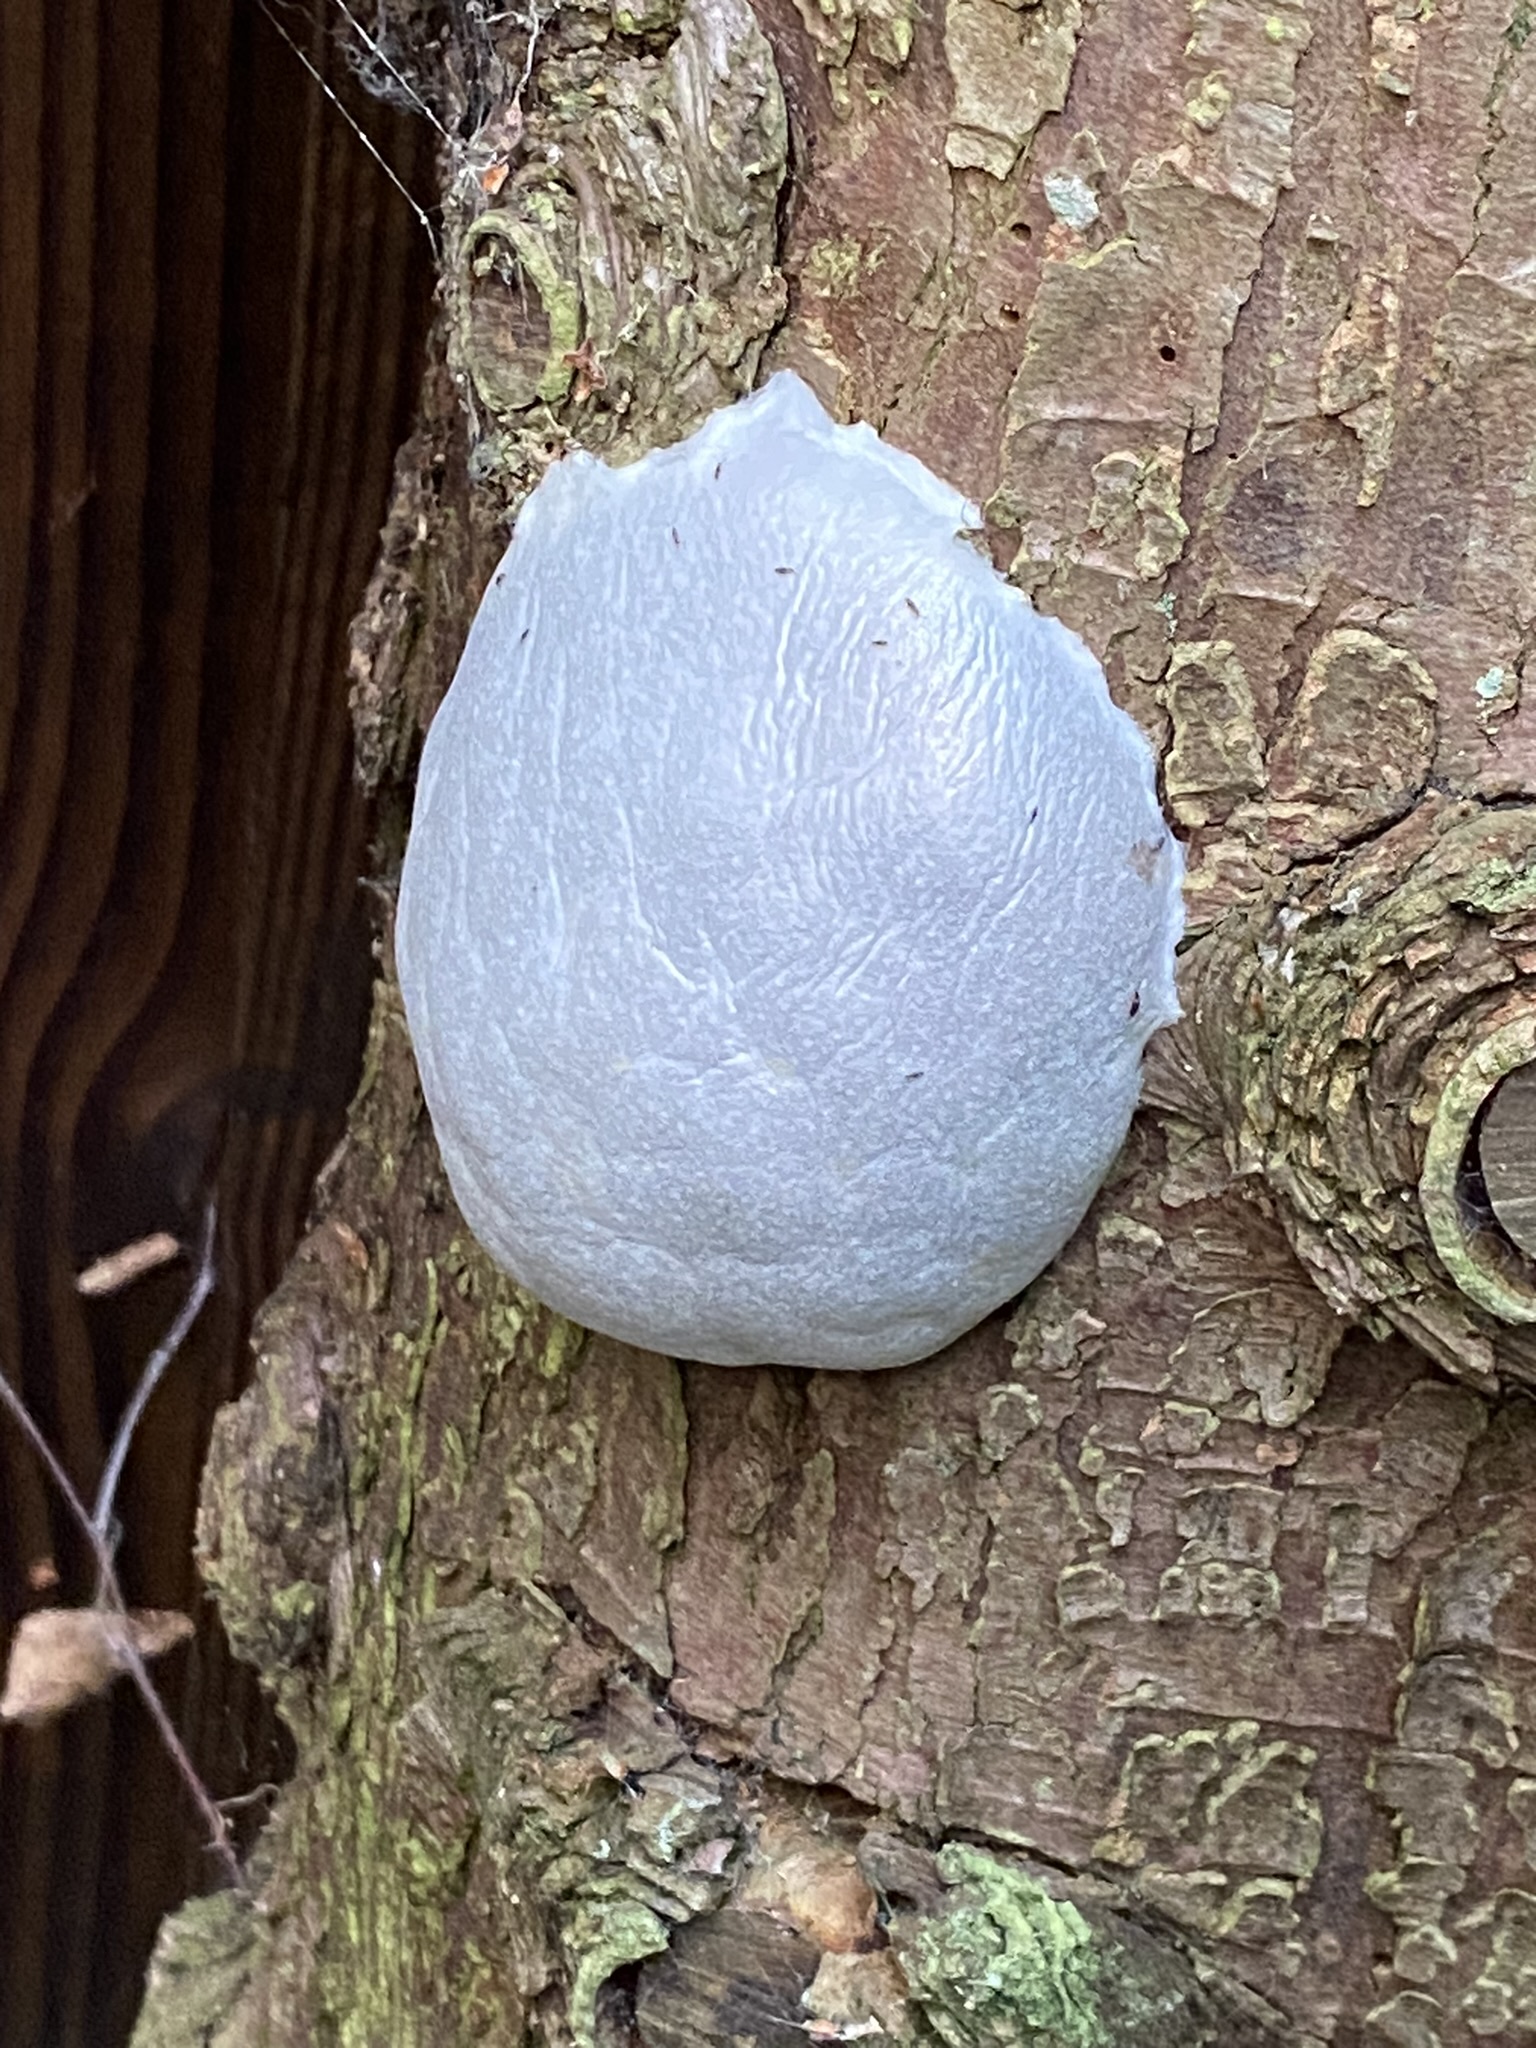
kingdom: Protozoa
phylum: Mycetozoa
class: Myxomycetes
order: Cribrariales
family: Tubiferaceae
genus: Reticularia
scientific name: Reticularia lycoperdon
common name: False puffball
